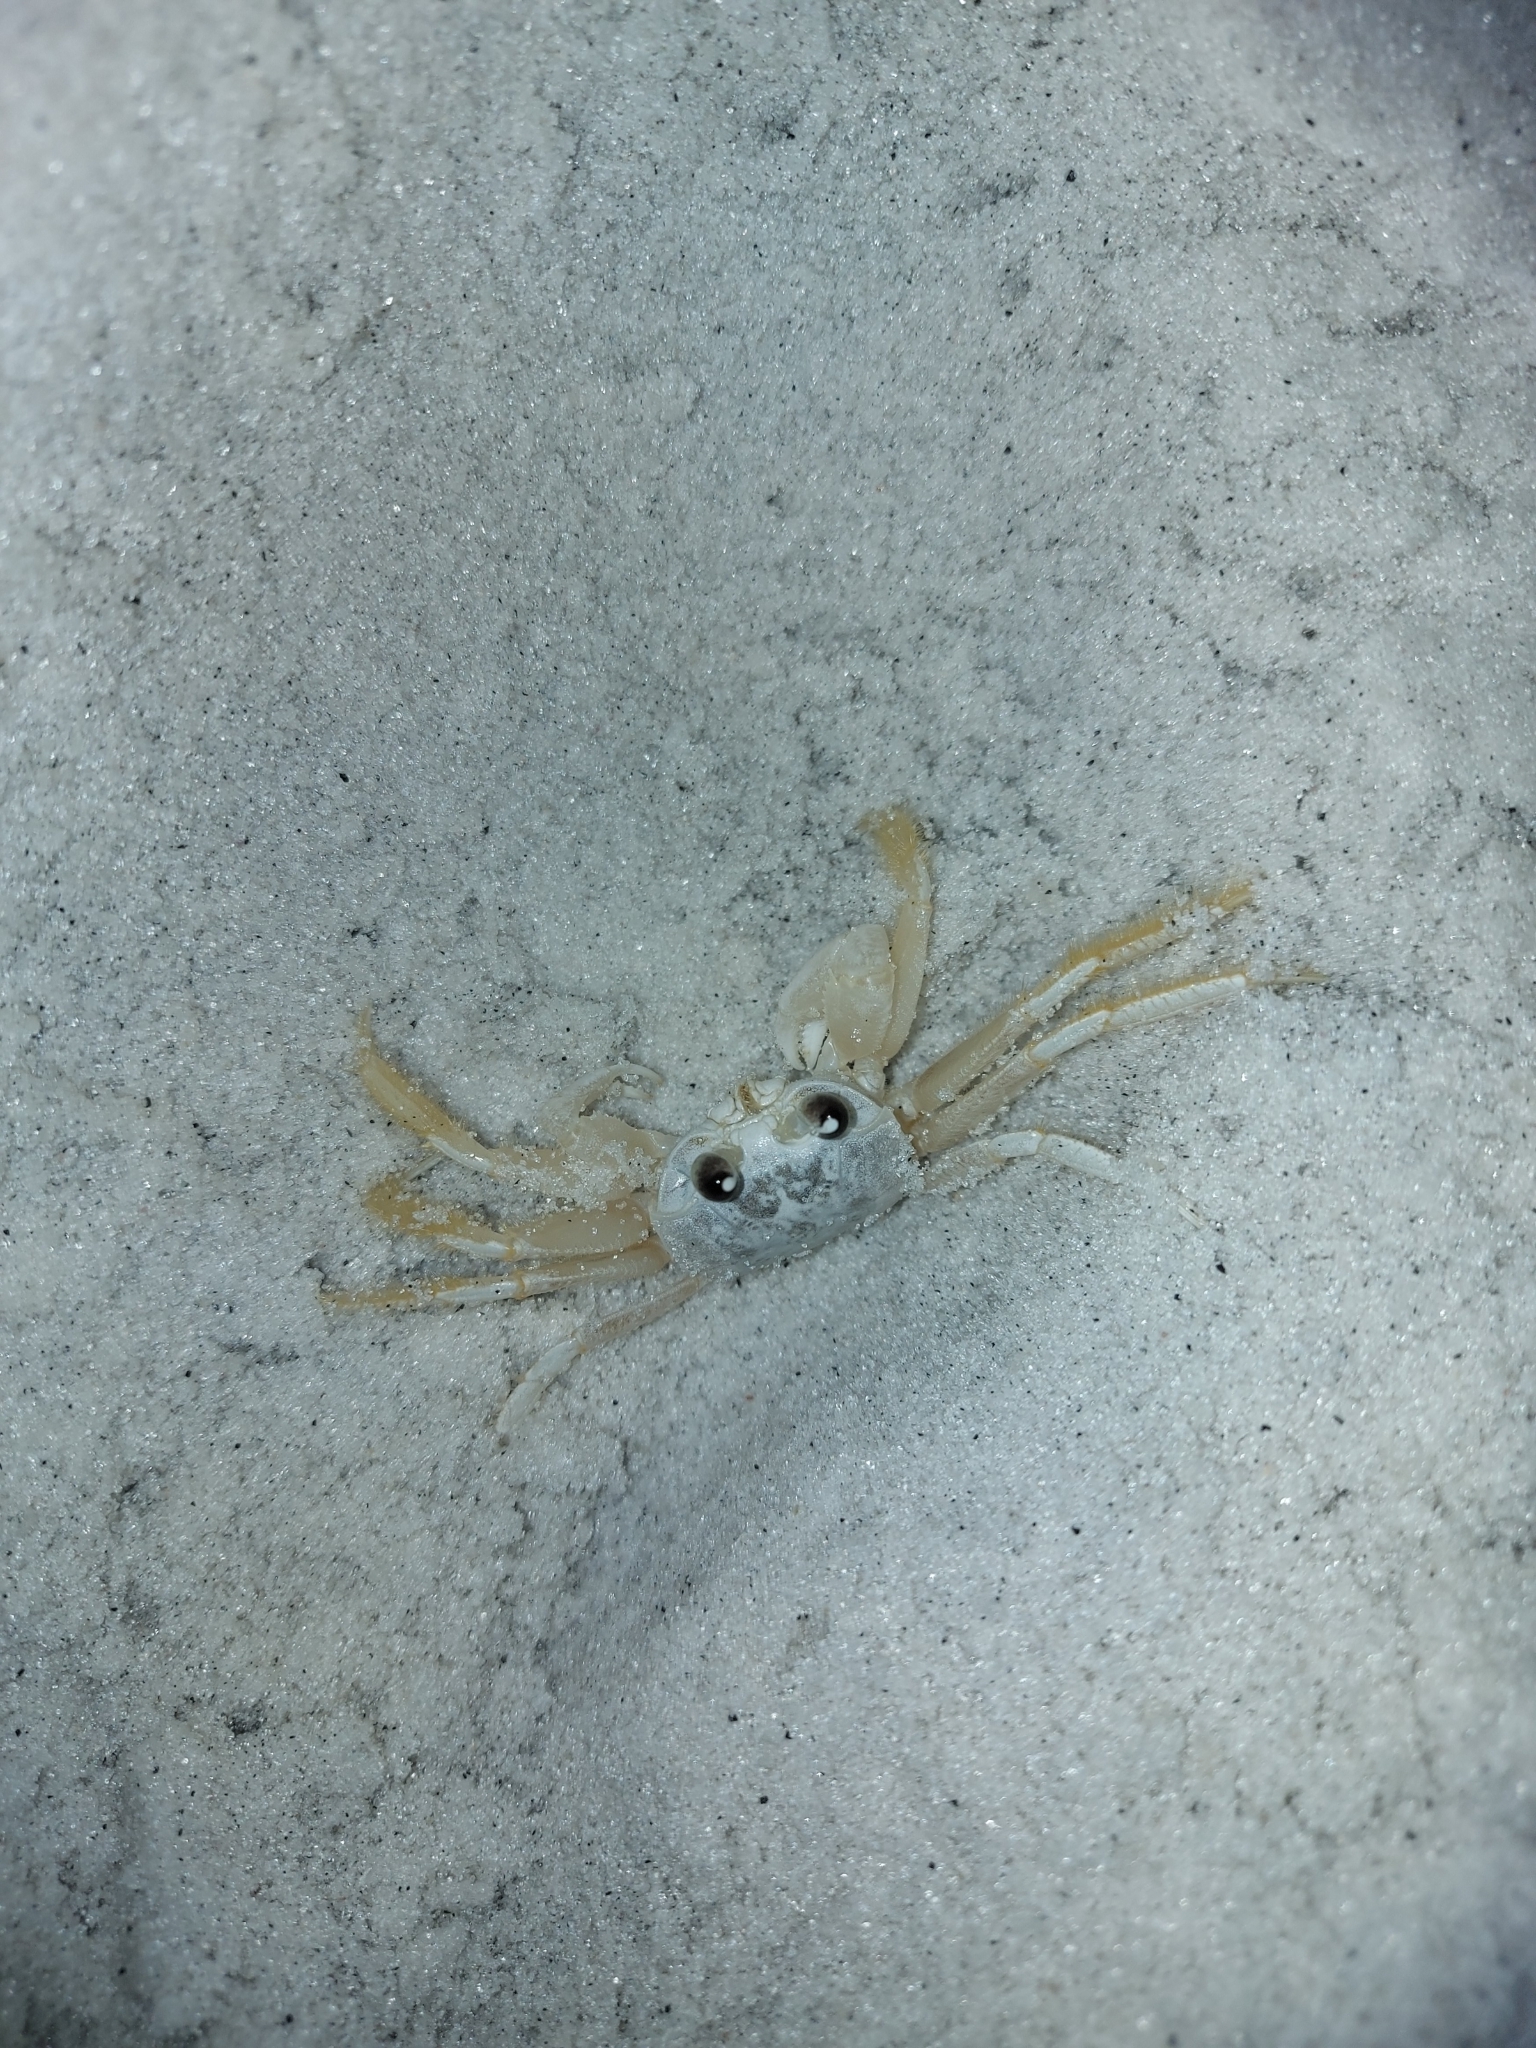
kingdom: Animalia
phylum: Arthropoda
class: Malacostraca
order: Decapoda
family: Ocypodidae
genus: Ocypode
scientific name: Ocypode quadrata
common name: Ghost crab
